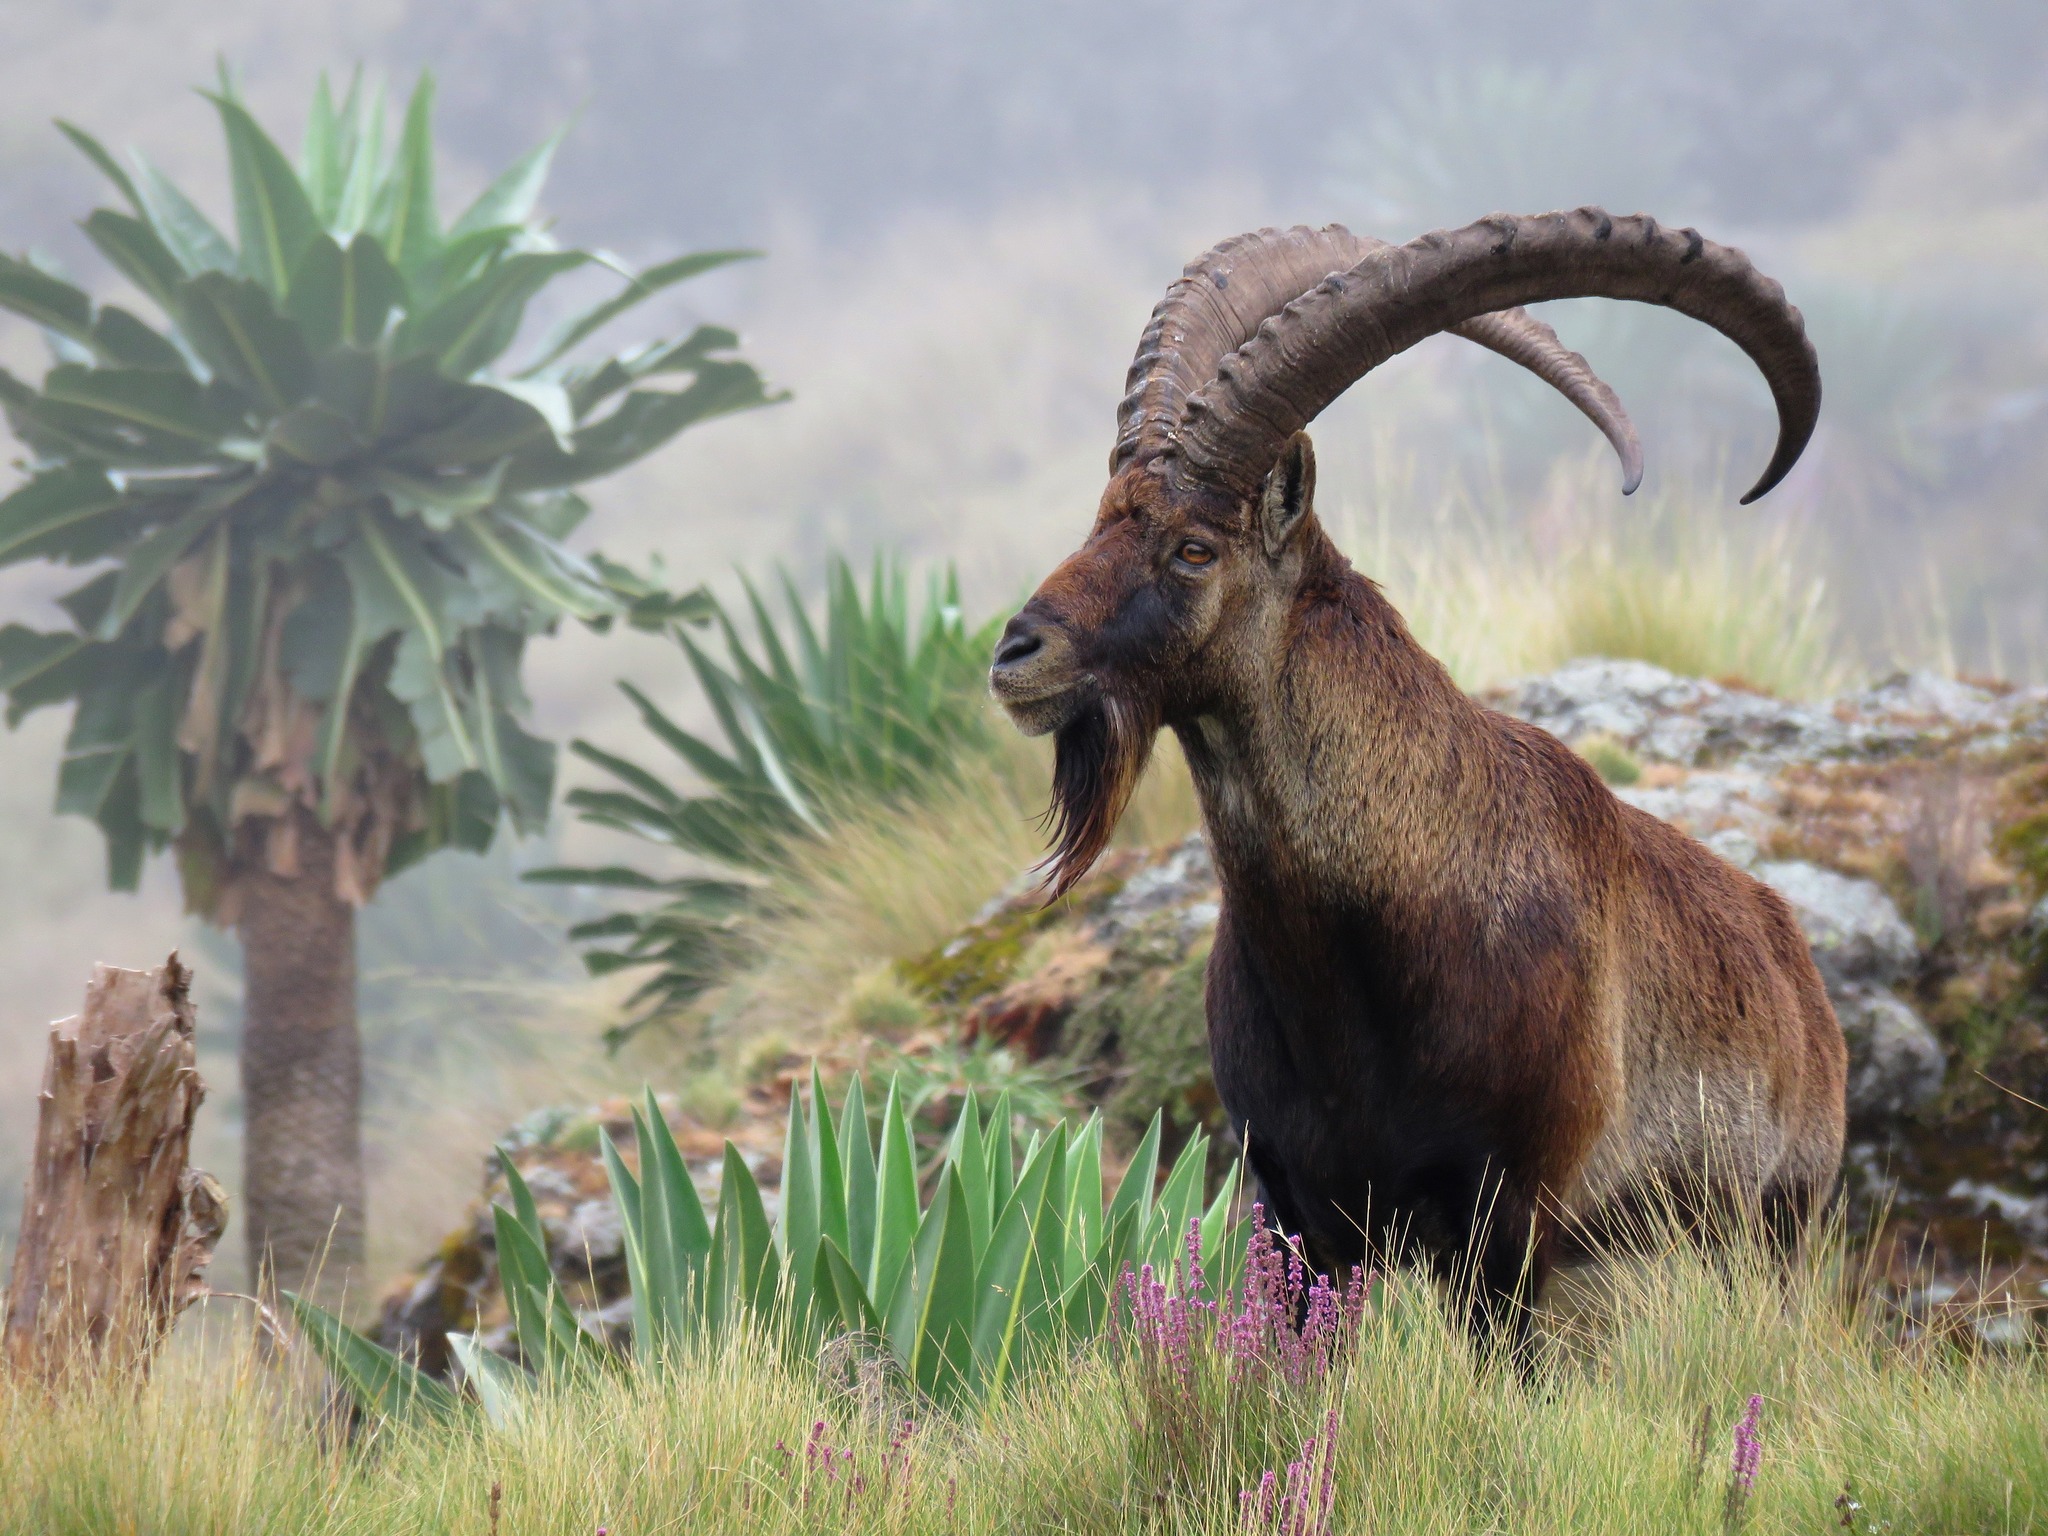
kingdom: Animalia
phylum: Chordata
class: Mammalia
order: Artiodactyla
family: Bovidae
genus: Capra
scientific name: Capra walie
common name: Walia
